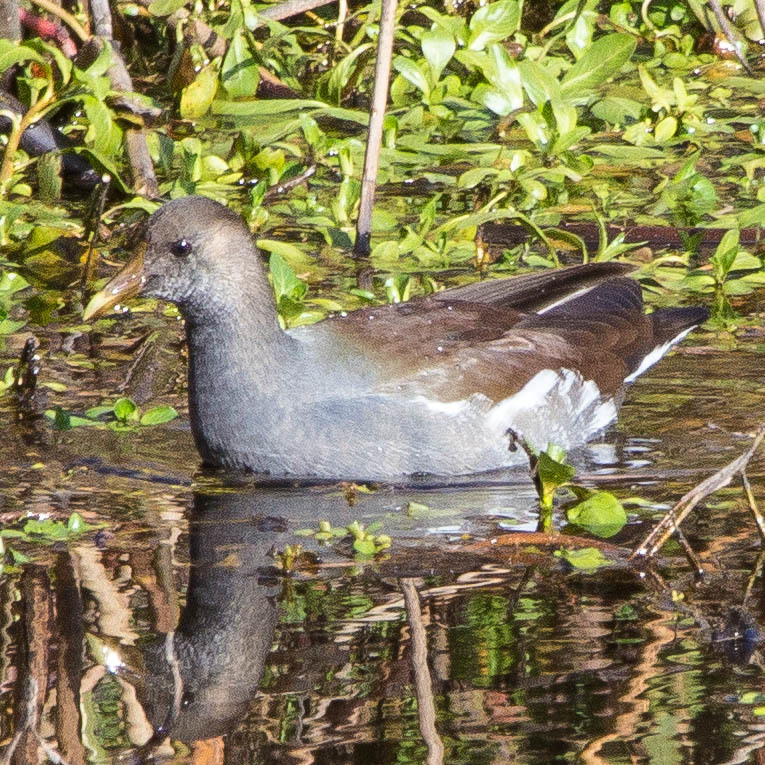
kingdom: Animalia
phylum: Chordata
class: Aves
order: Gruiformes
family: Rallidae
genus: Gallinula
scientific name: Gallinula chloropus
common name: Common moorhen
